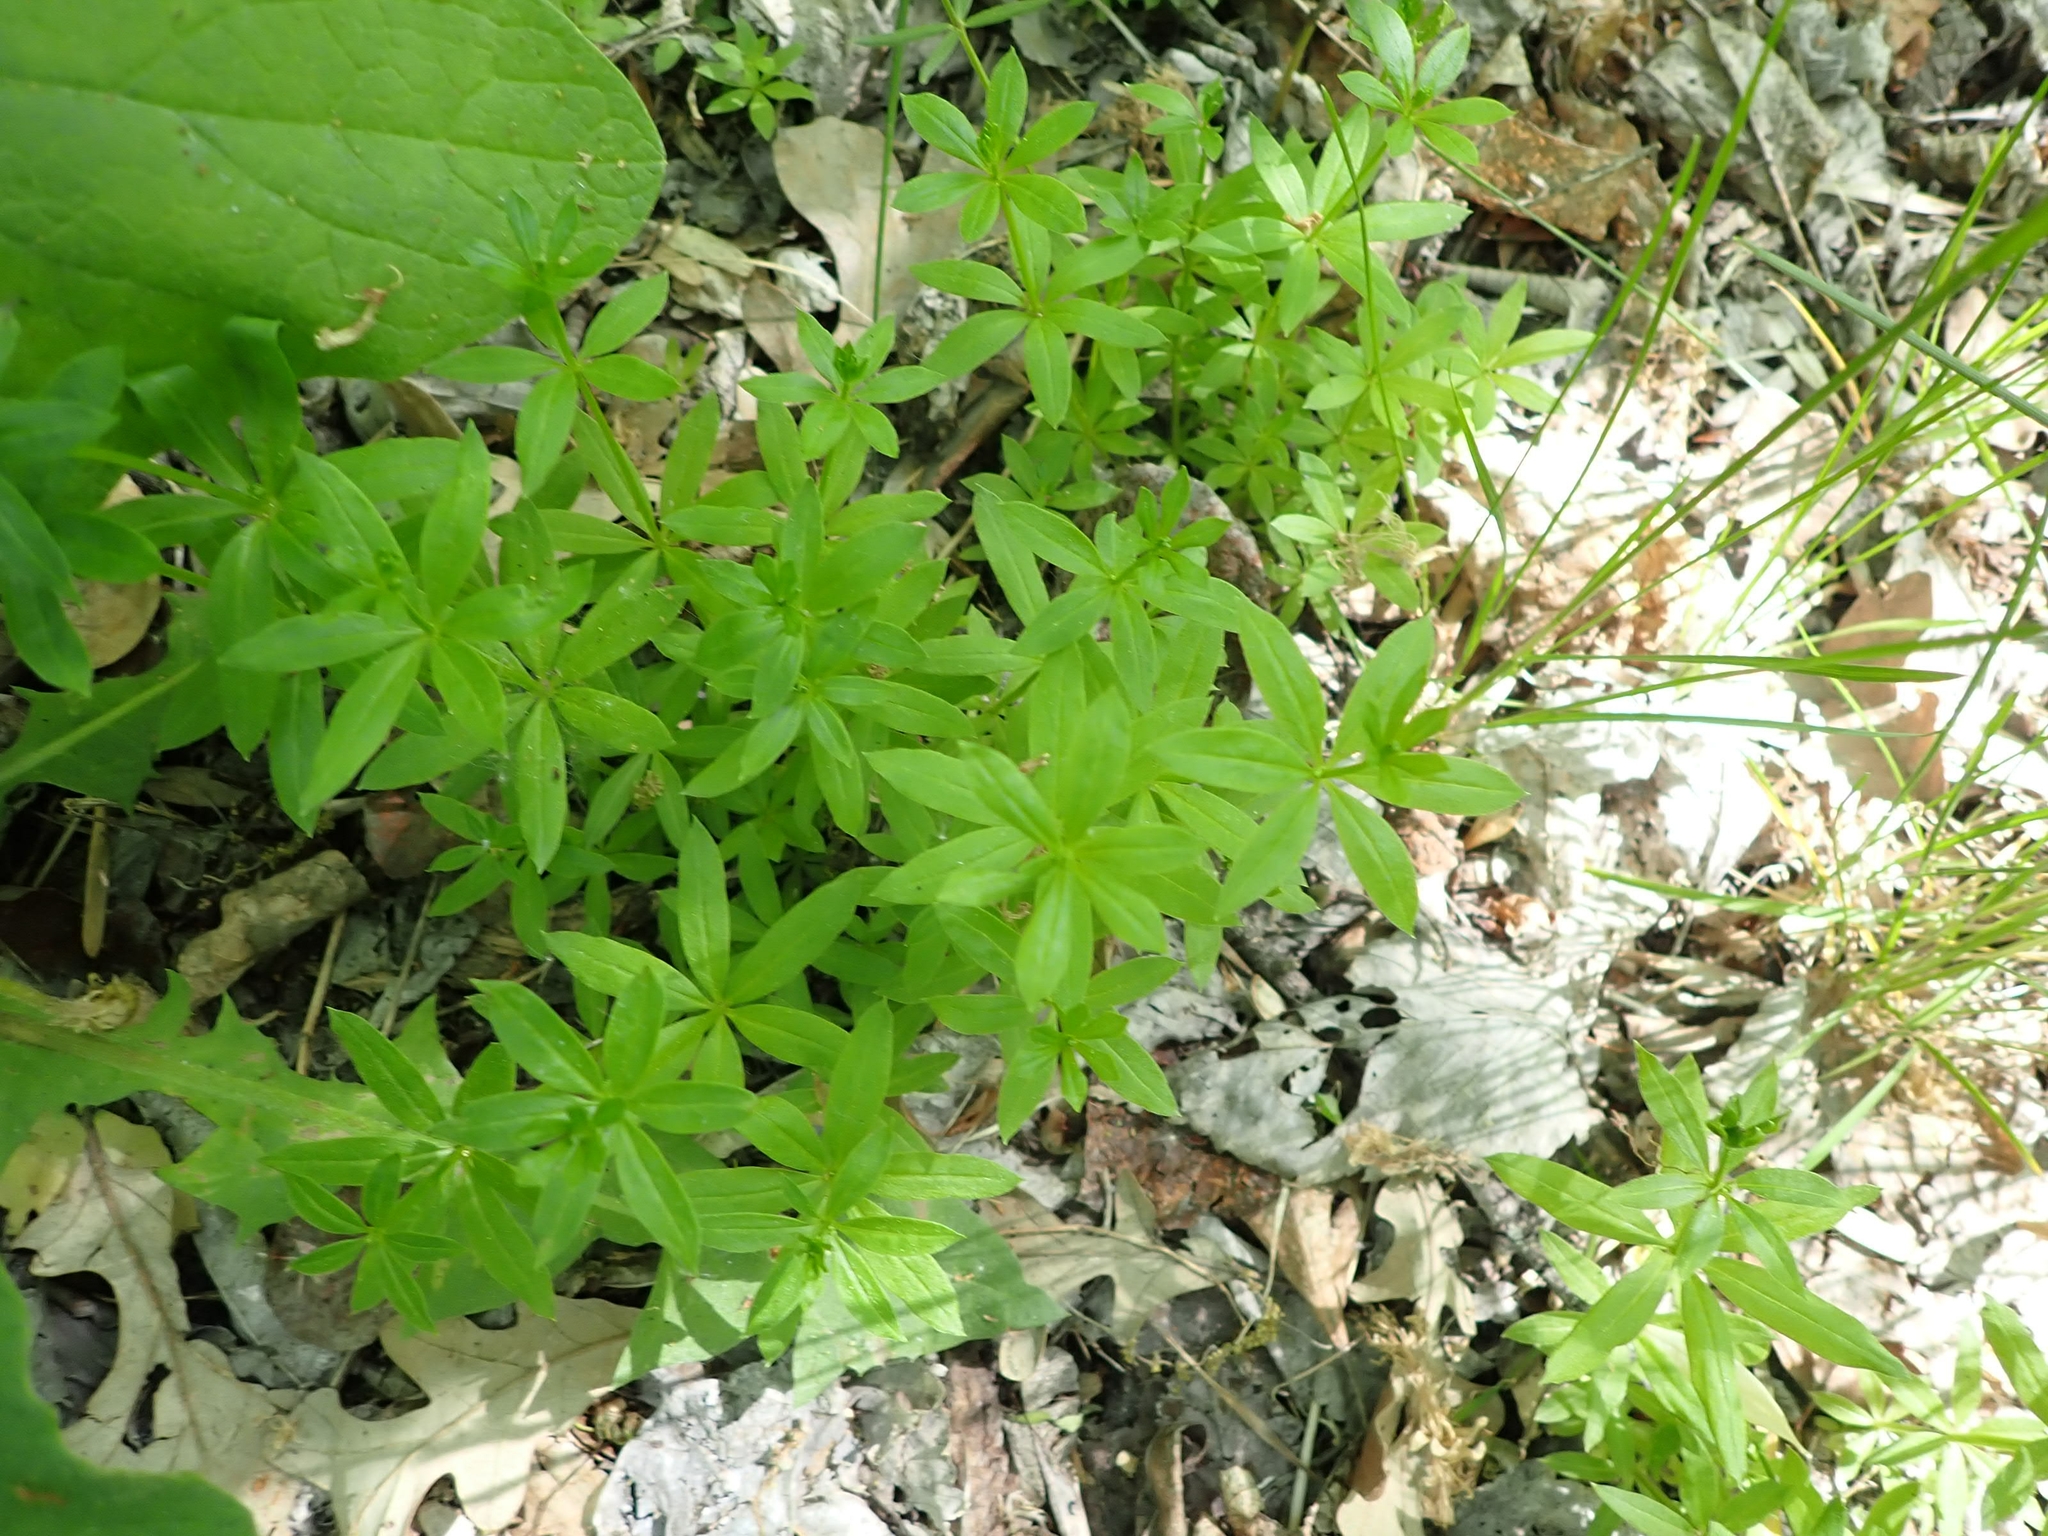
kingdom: Plantae
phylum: Tracheophyta
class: Magnoliopsida
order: Gentianales
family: Rubiaceae
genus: Galium
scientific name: Galium triflorum
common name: Fragrant bedstraw
